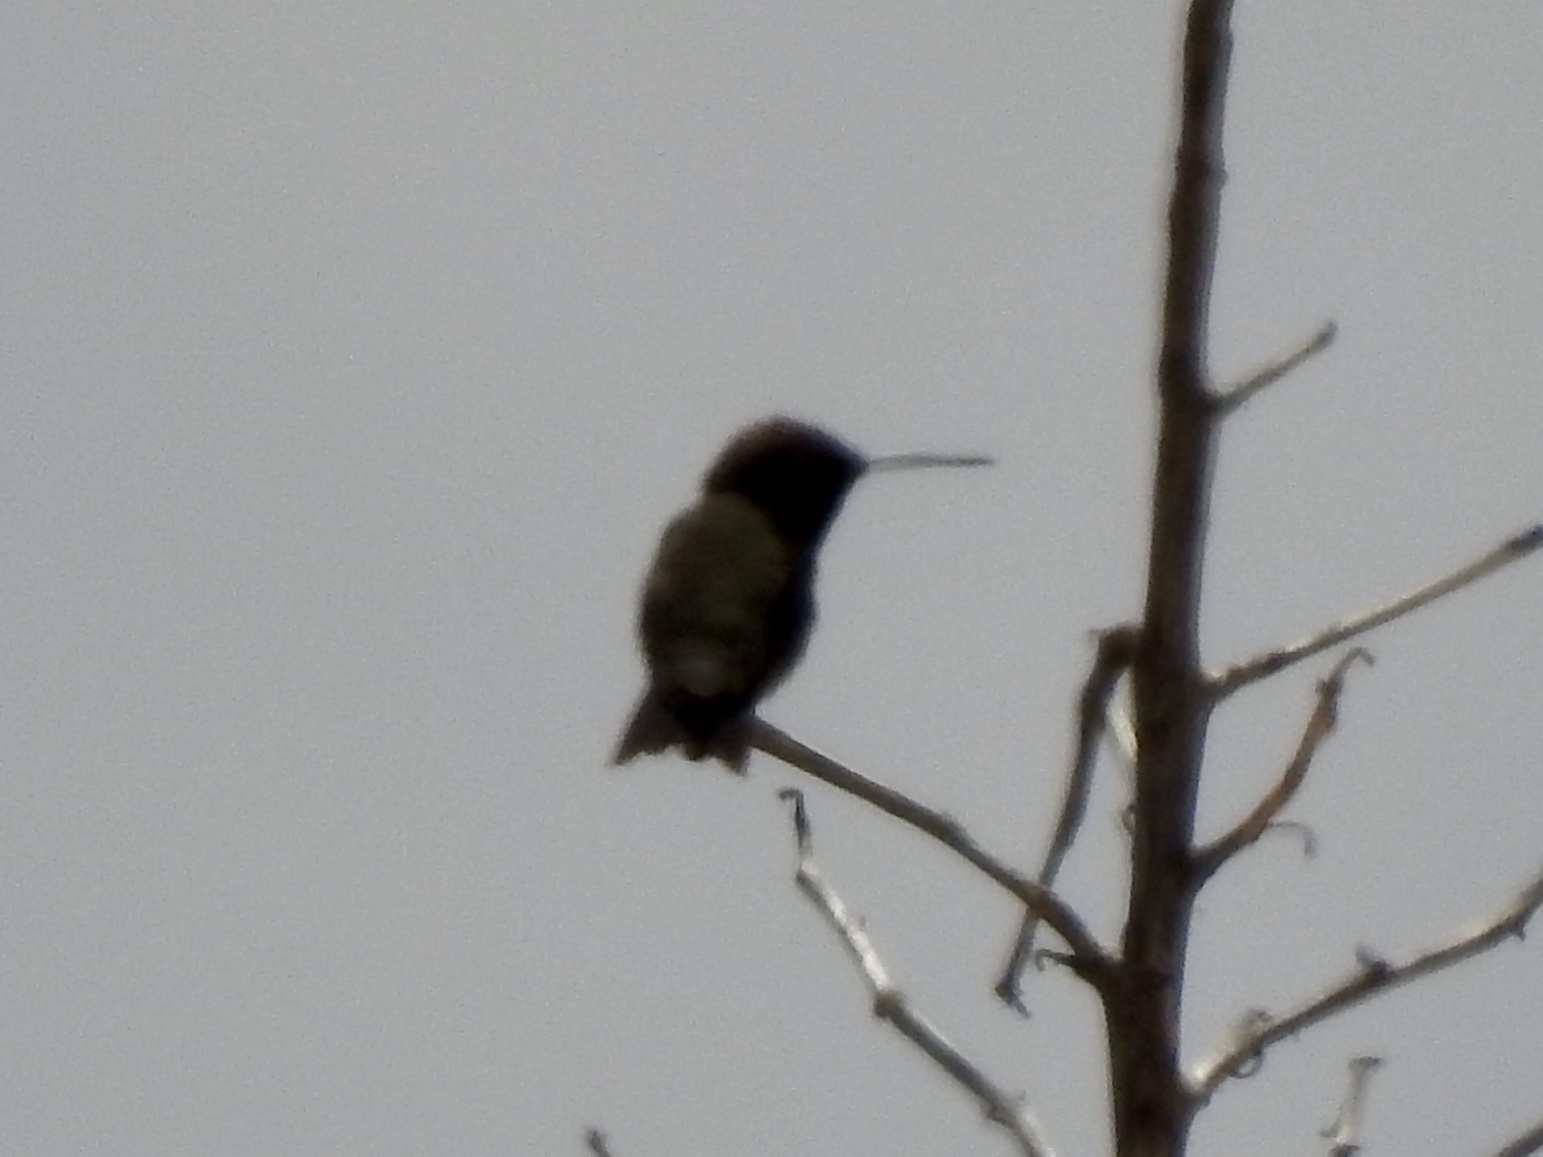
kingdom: Animalia
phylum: Chordata
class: Aves
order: Apodiformes
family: Trochilidae
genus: Archilochus
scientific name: Archilochus alexandri
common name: Black-chinned hummingbird
